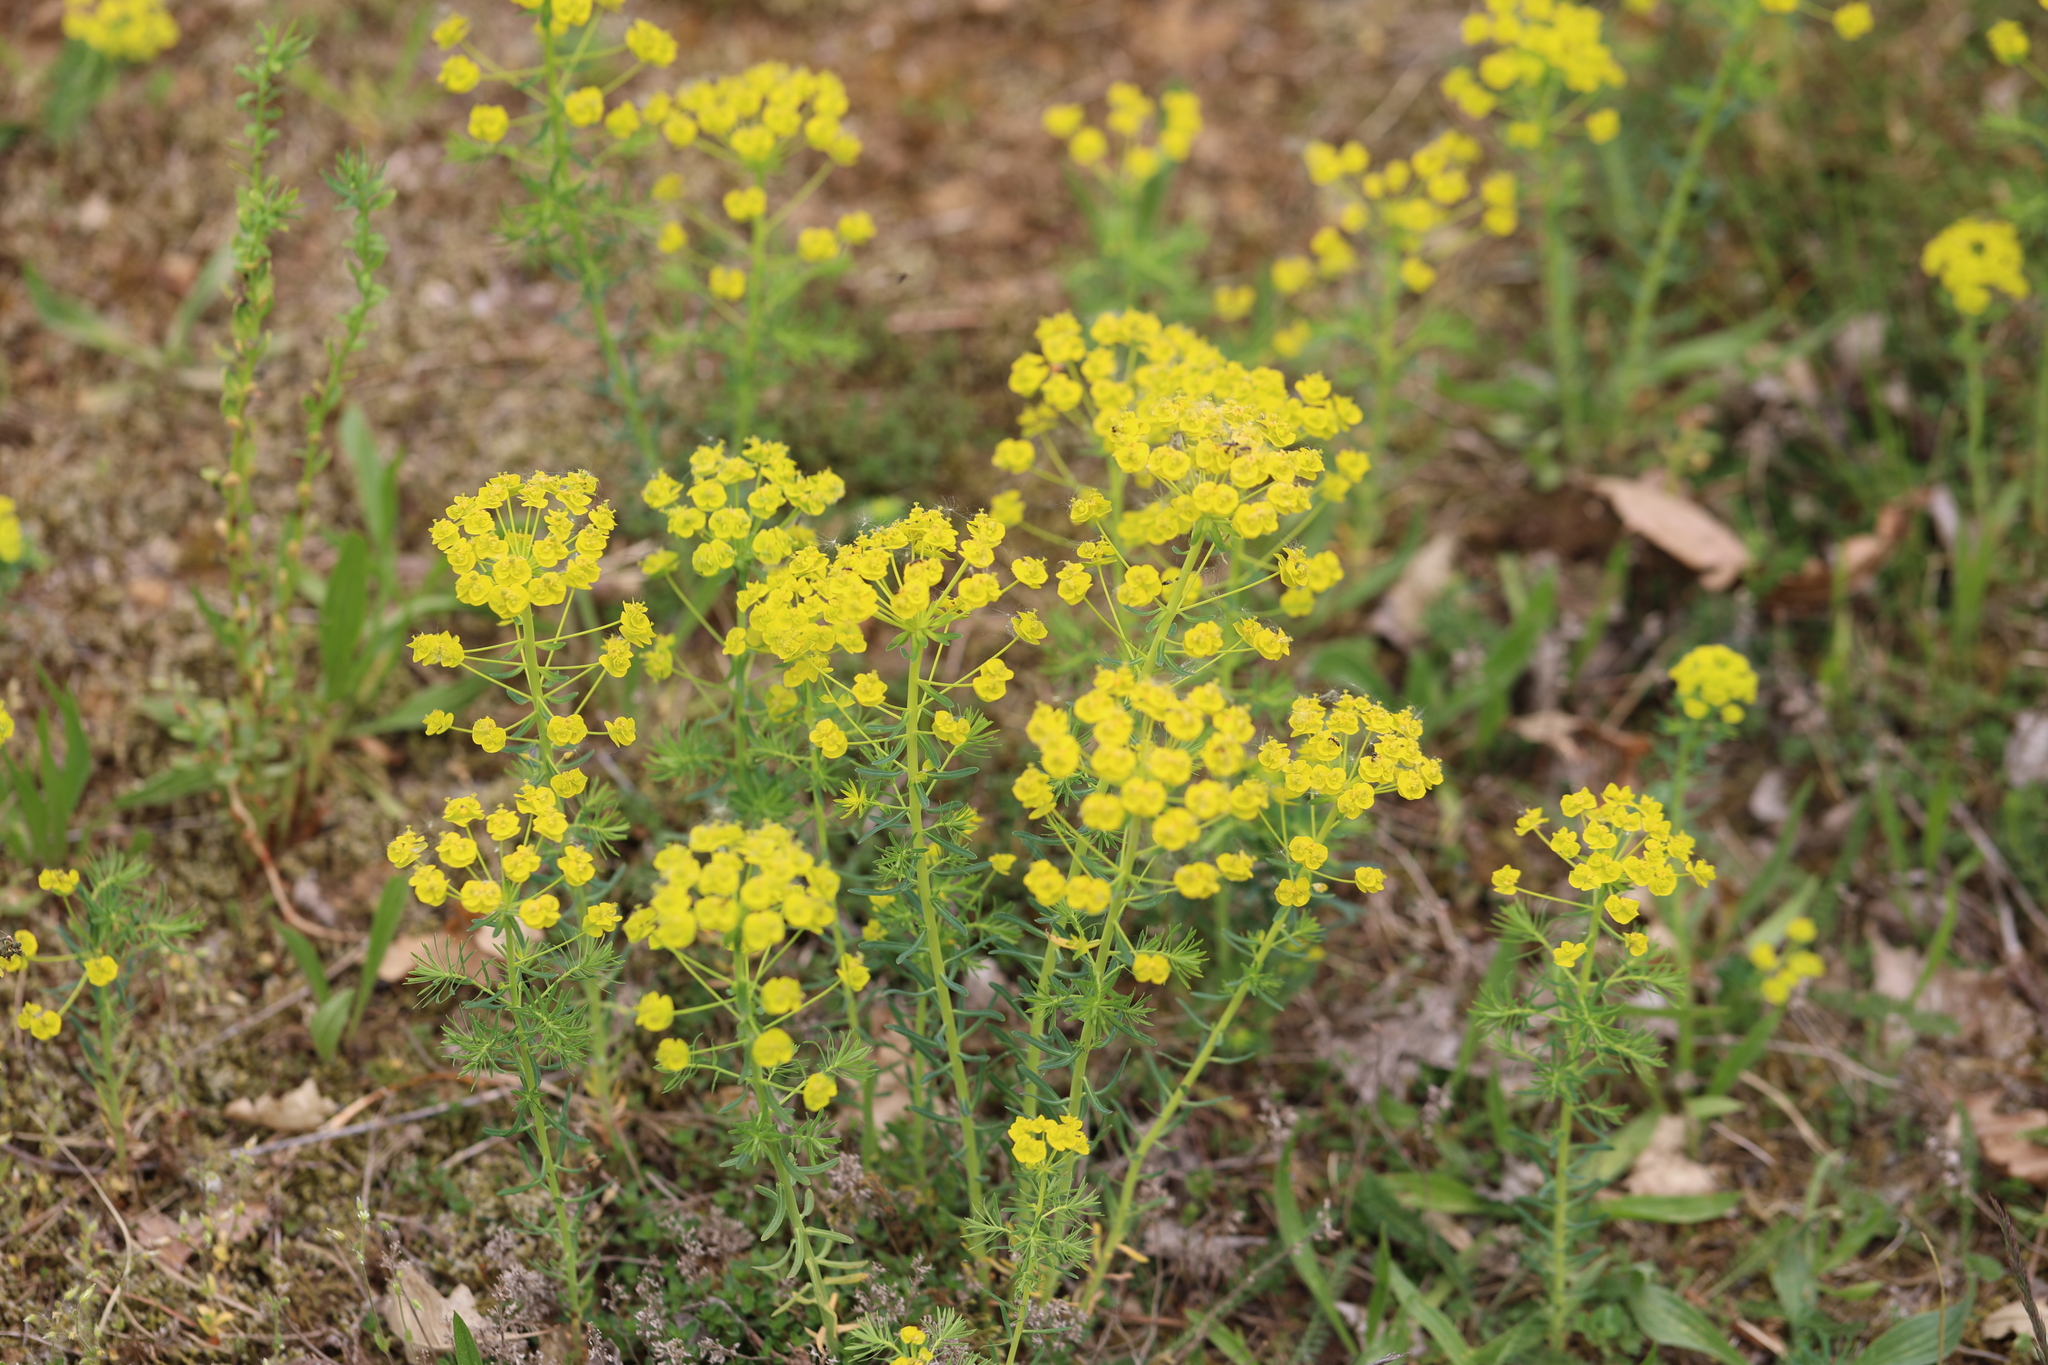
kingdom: Plantae
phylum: Tracheophyta
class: Magnoliopsida
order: Malpighiales
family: Euphorbiaceae
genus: Euphorbia
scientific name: Euphorbia cyparissias
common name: Cypress spurge
